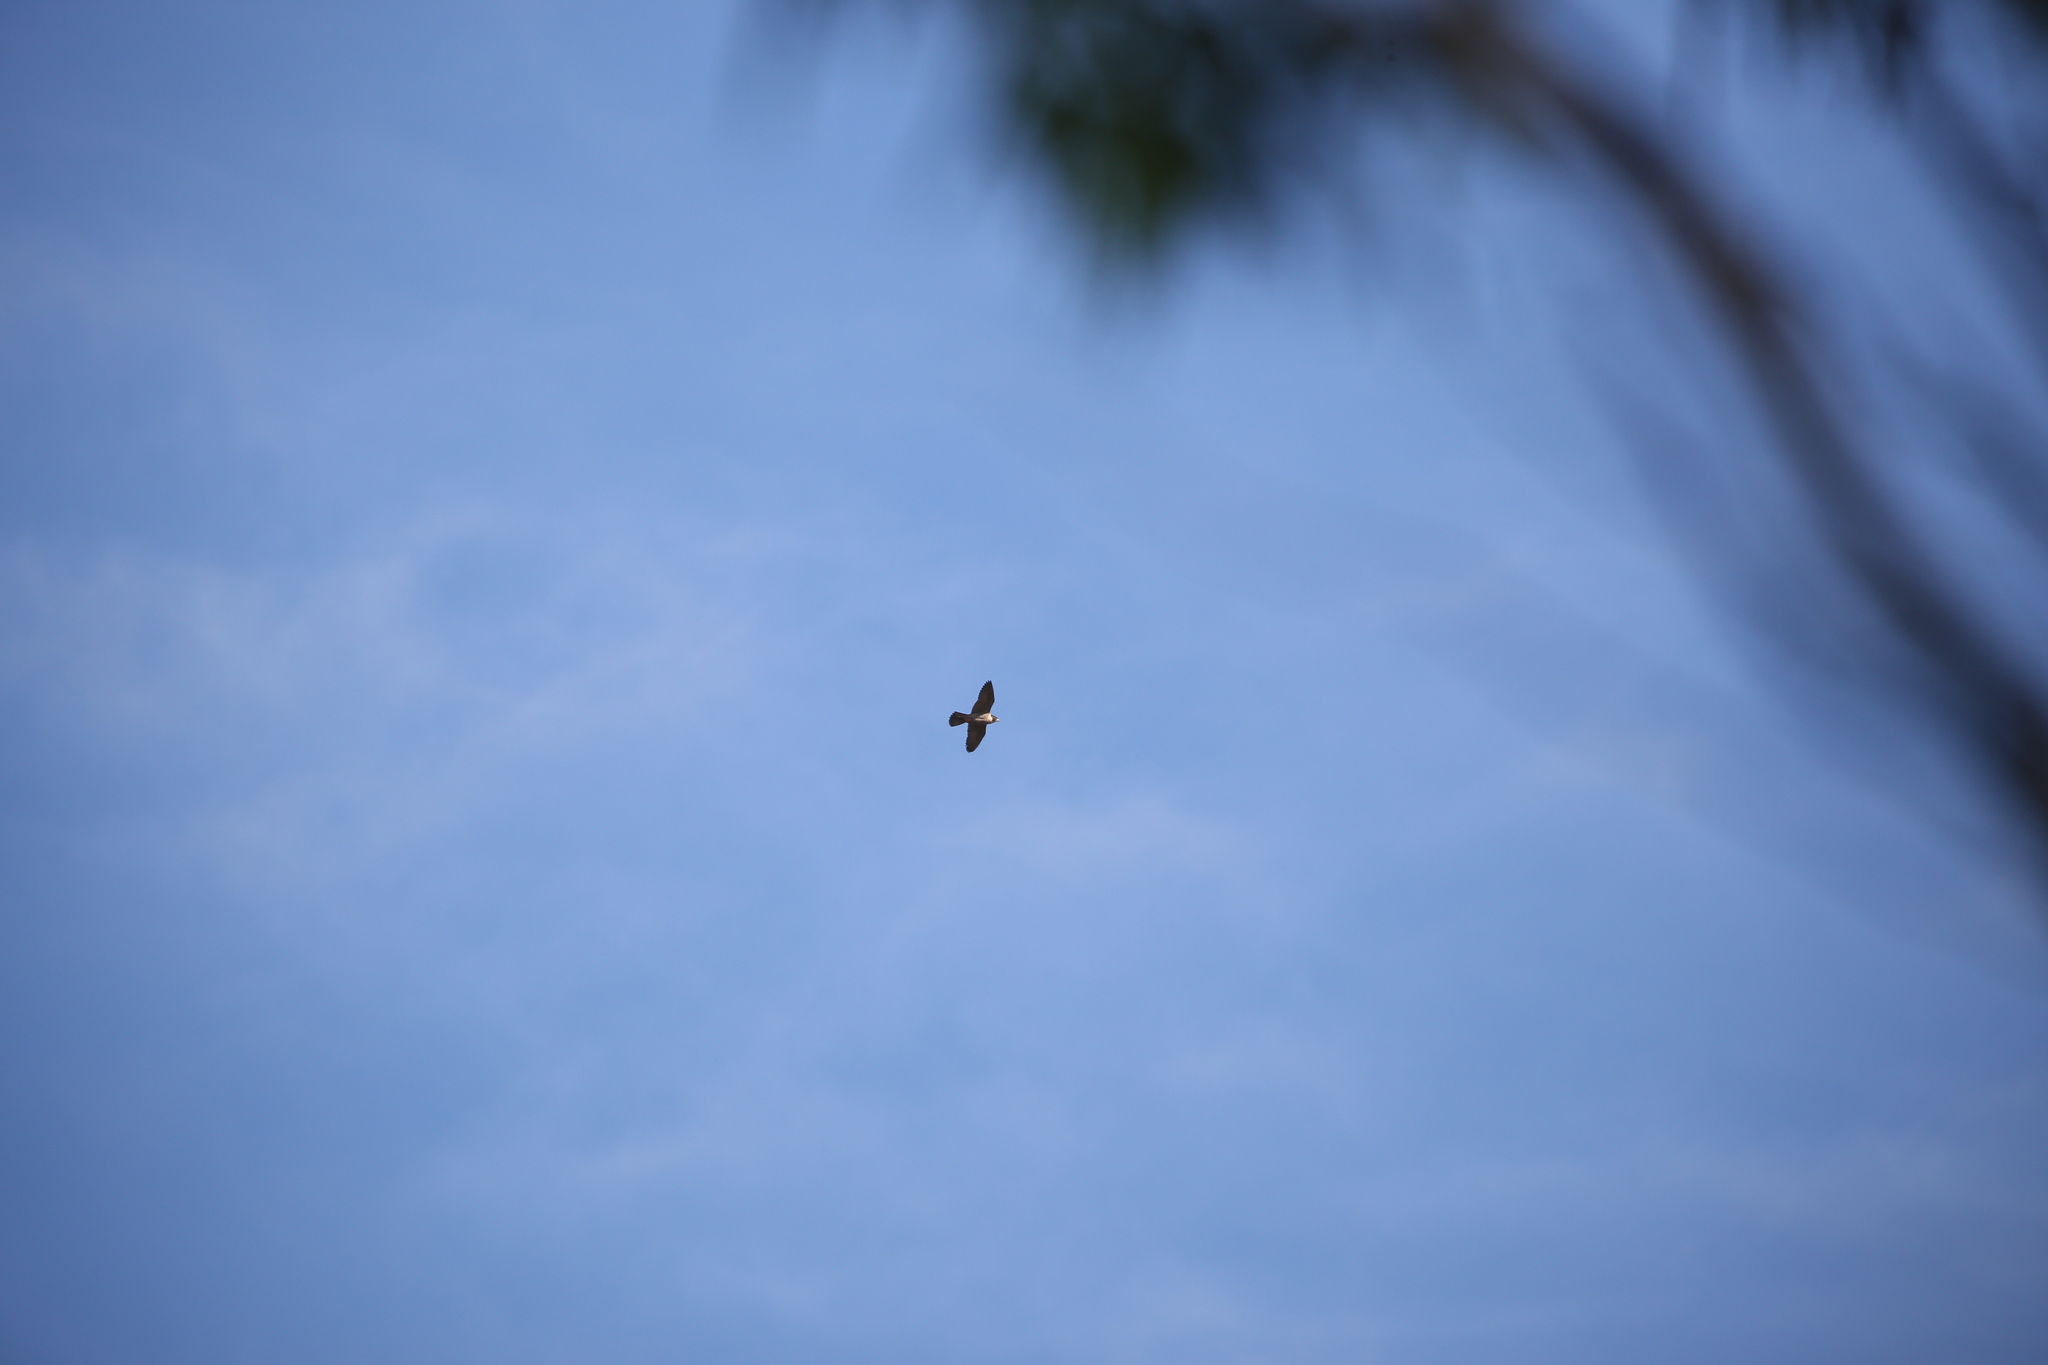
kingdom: Animalia
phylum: Chordata
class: Aves
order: Falconiformes
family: Falconidae
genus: Falco
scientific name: Falco peregrinus
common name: Peregrine falcon
